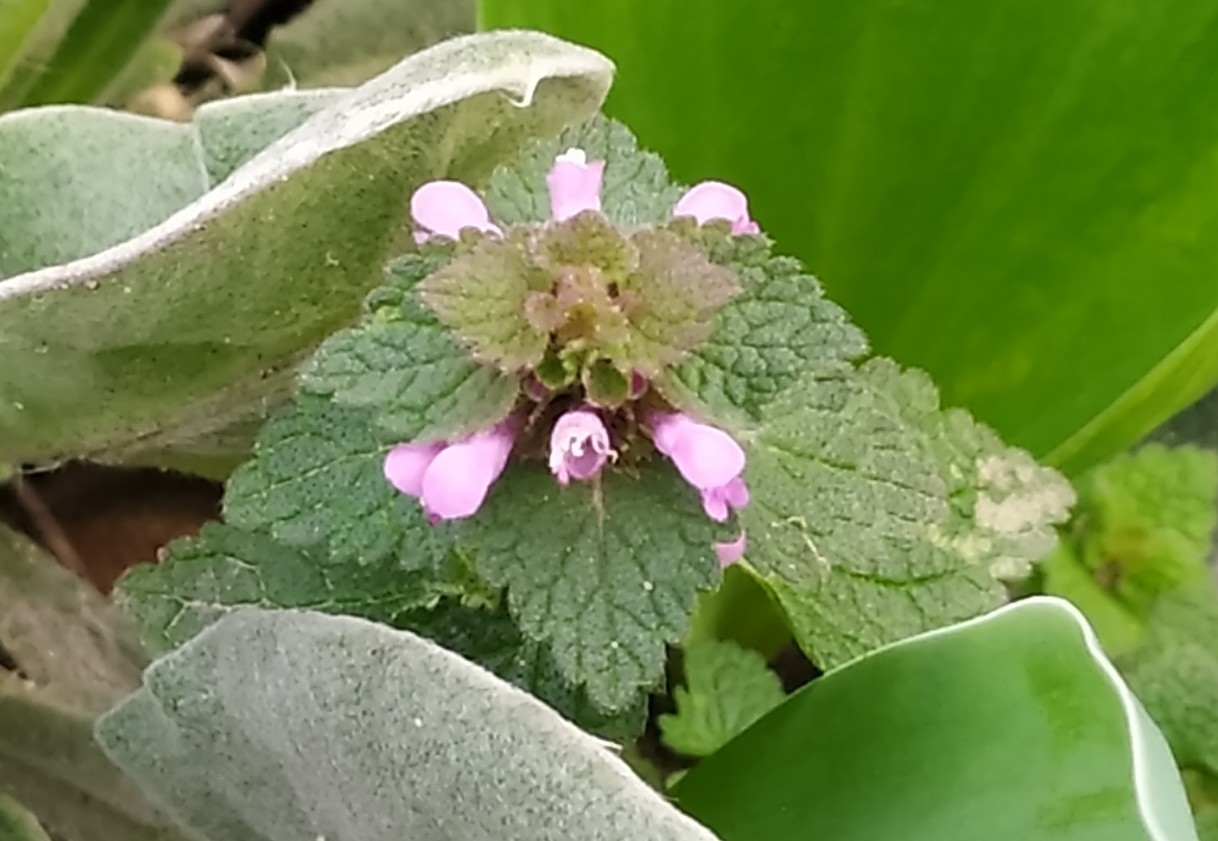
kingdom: Plantae
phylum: Tracheophyta
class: Magnoliopsida
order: Lamiales
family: Lamiaceae
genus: Lamium
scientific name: Lamium purpureum
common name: Red dead-nettle
